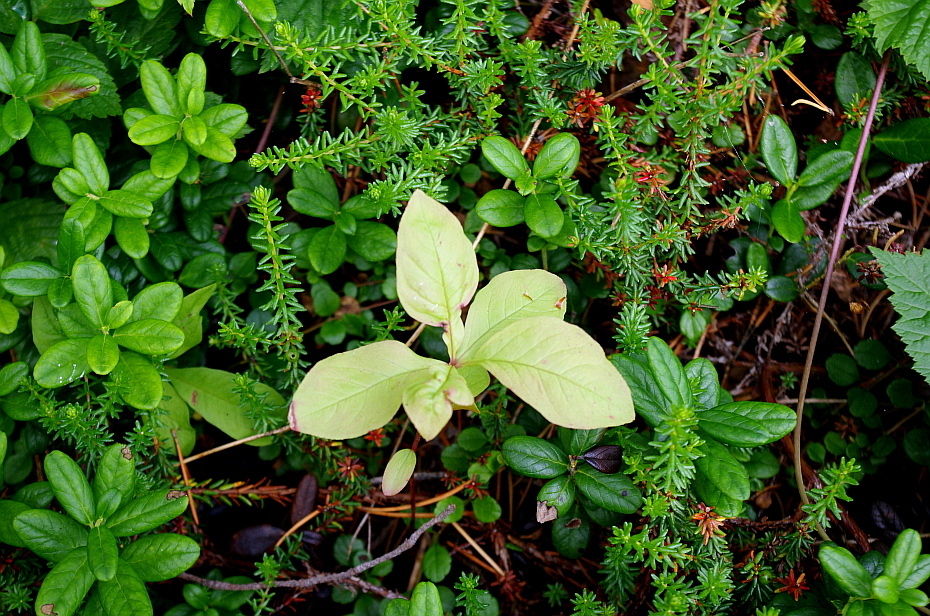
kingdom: Plantae
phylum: Tracheophyta
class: Magnoliopsida
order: Ericales
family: Primulaceae
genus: Lysimachia
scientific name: Lysimachia europaea
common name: Arctic starflower
